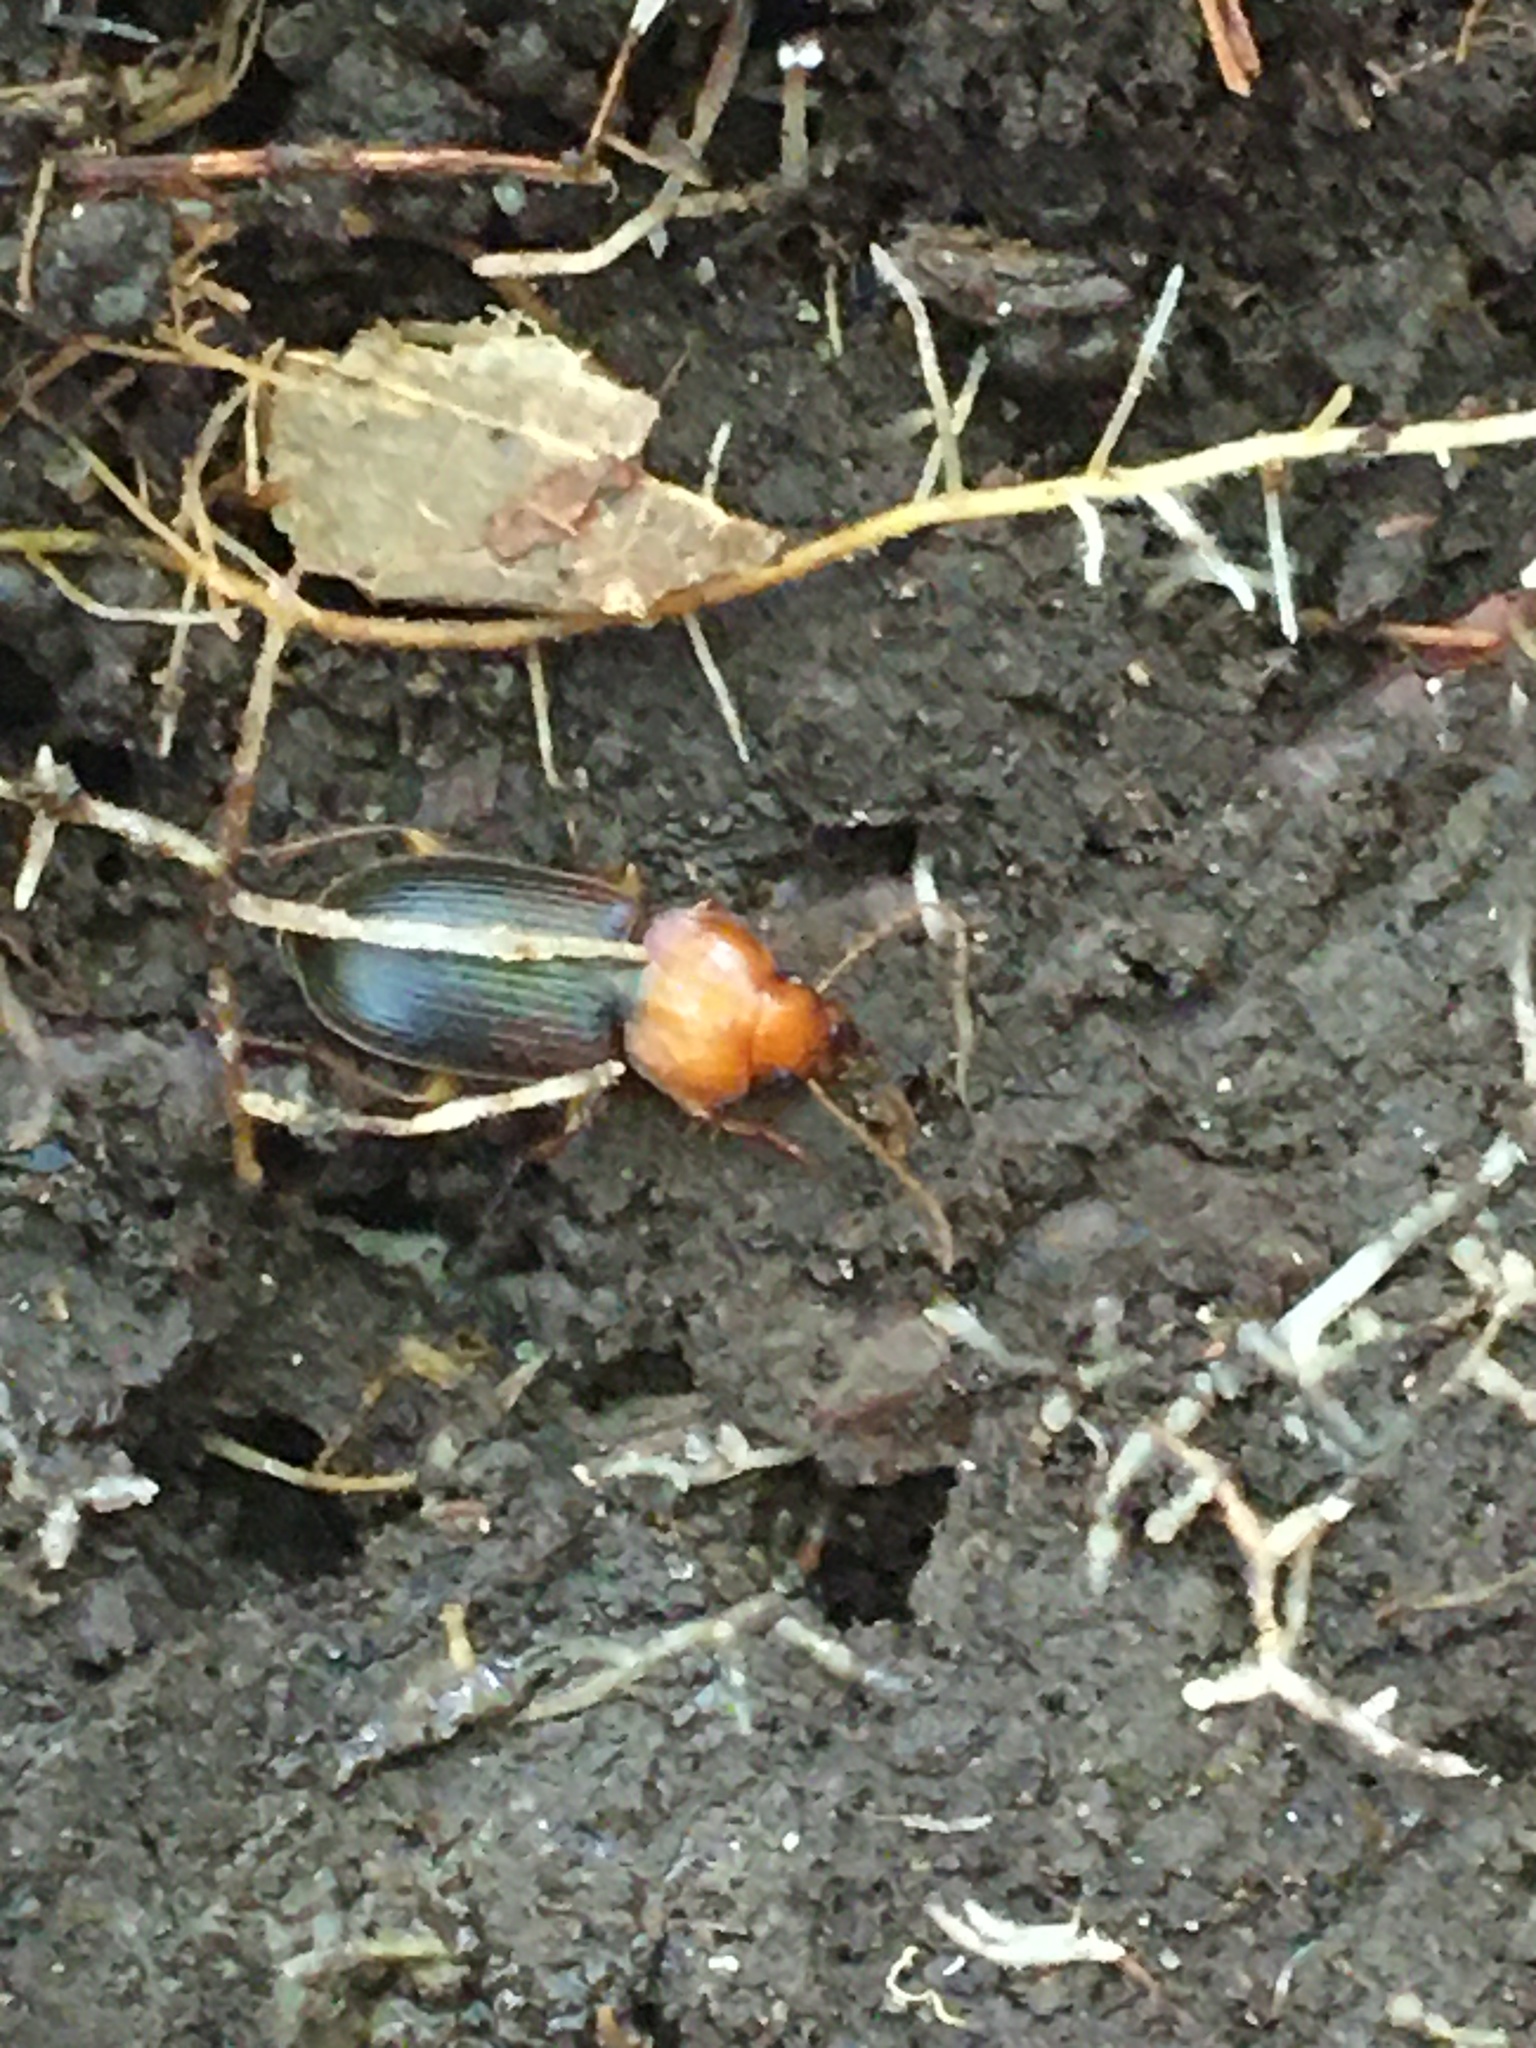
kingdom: Animalia
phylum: Arthropoda
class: Insecta
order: Coleoptera
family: Carabidae
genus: Amphasia
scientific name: Amphasia interstitialis
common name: Red-headed ground beetle
